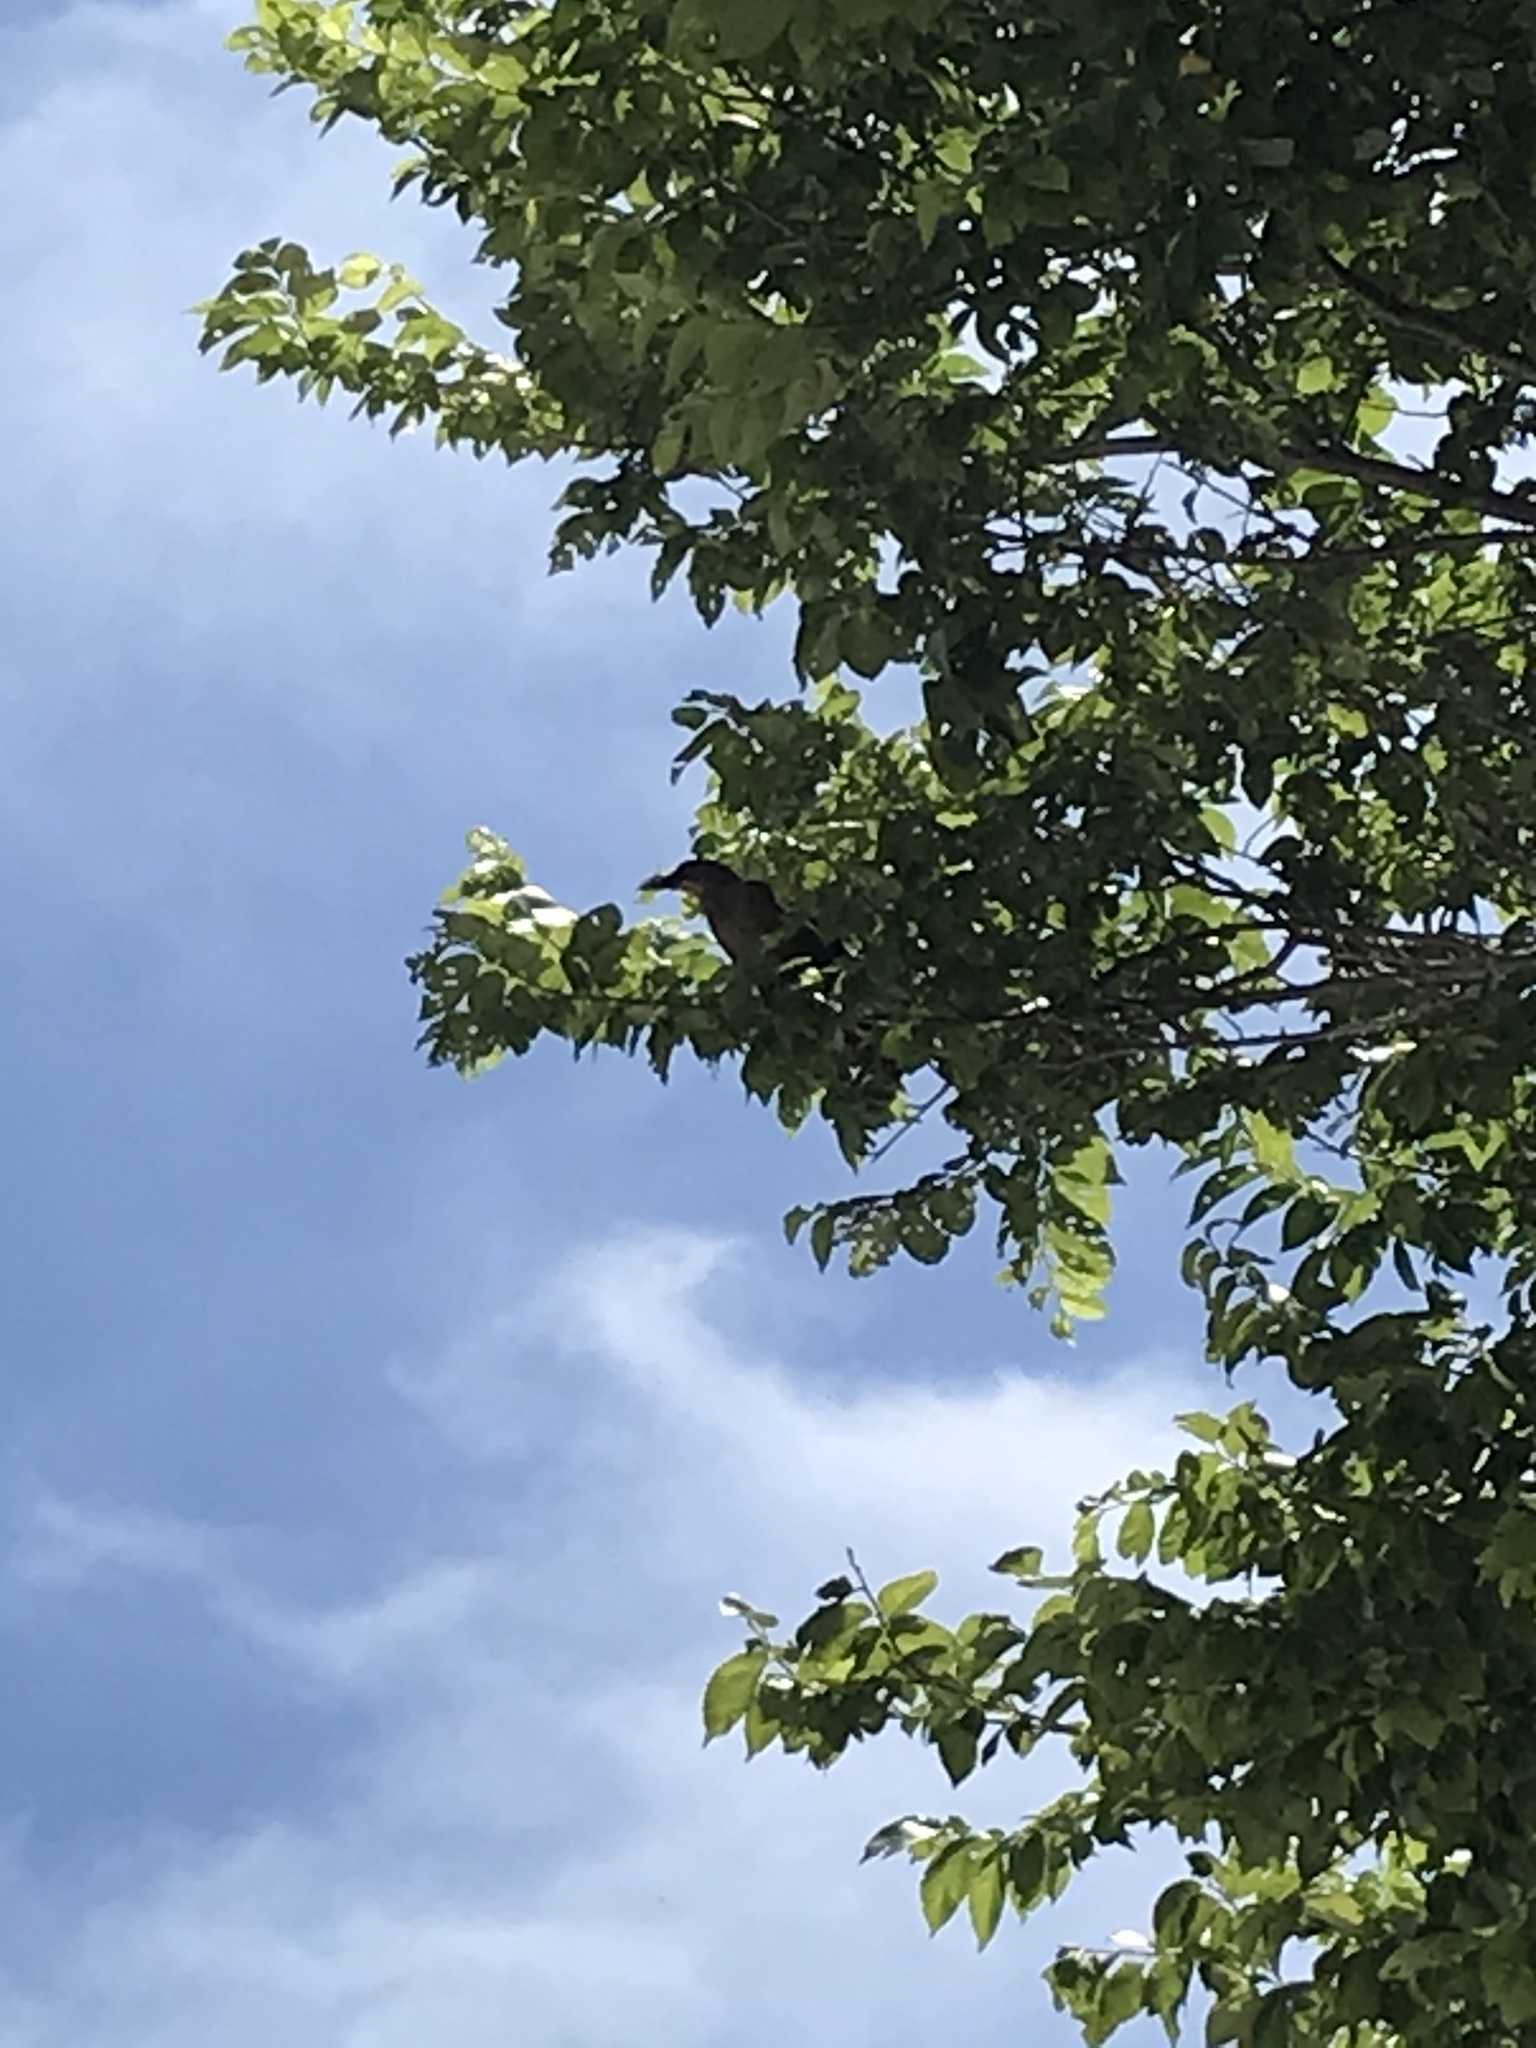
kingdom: Animalia
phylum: Chordata
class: Aves
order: Passeriformes
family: Icteridae
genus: Quiscalus
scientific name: Quiscalus mexicanus
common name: Great-tailed grackle
